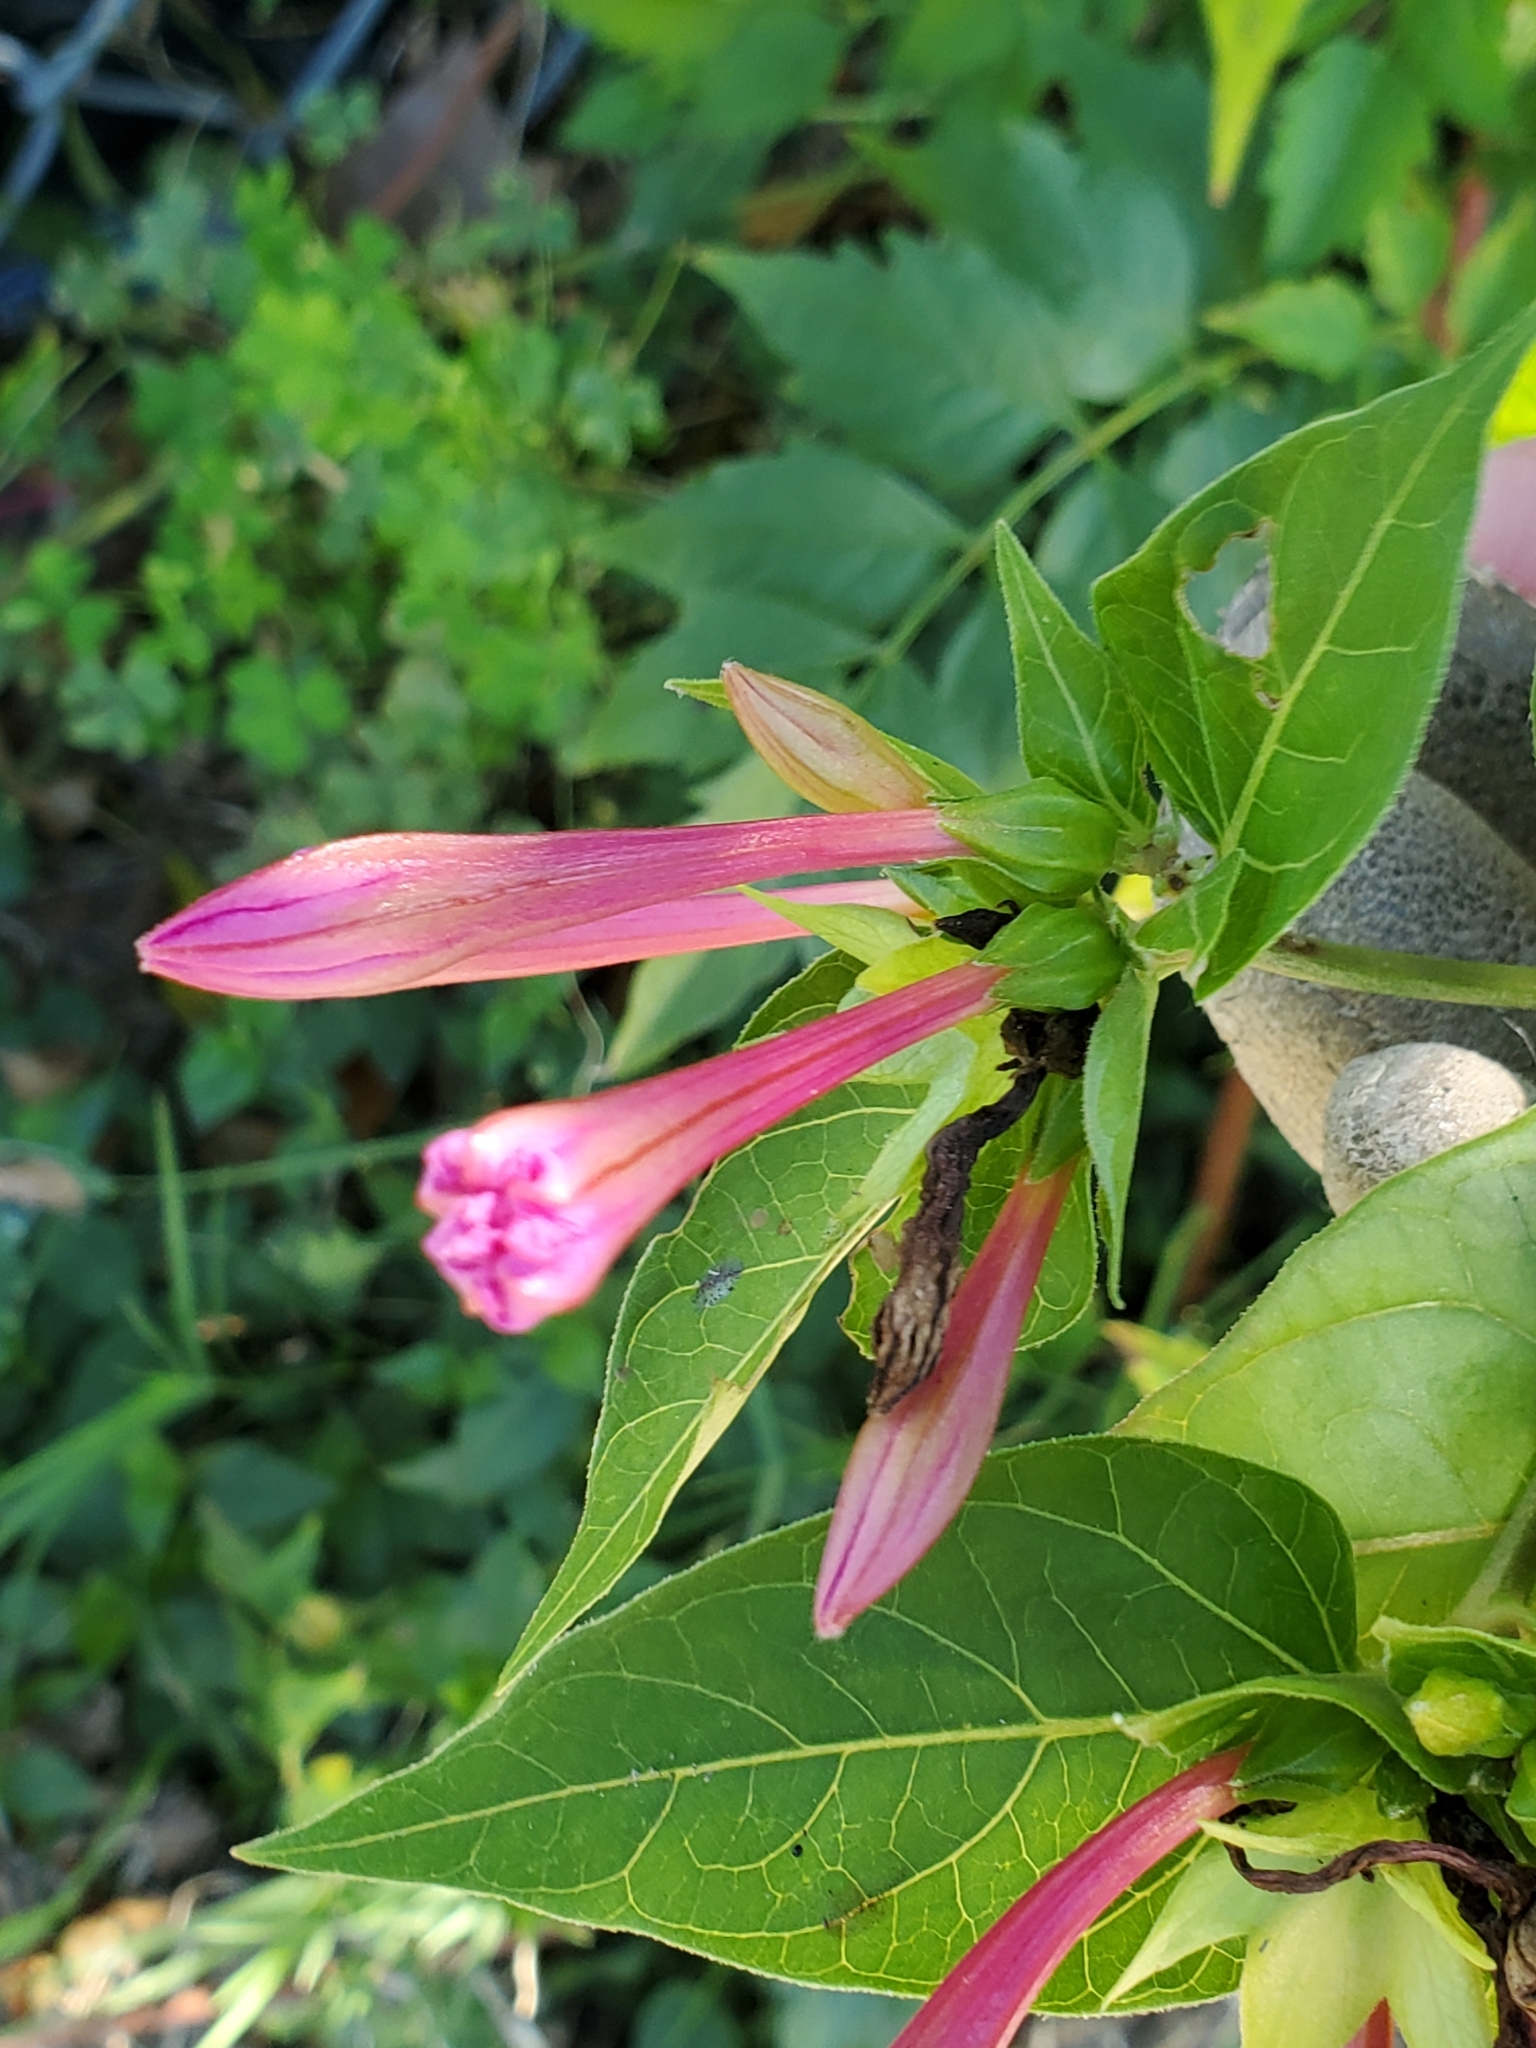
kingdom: Plantae
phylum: Tracheophyta
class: Magnoliopsida
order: Caryophyllales
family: Nyctaginaceae
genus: Mirabilis
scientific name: Mirabilis jalapa
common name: Marvel-of-peru
